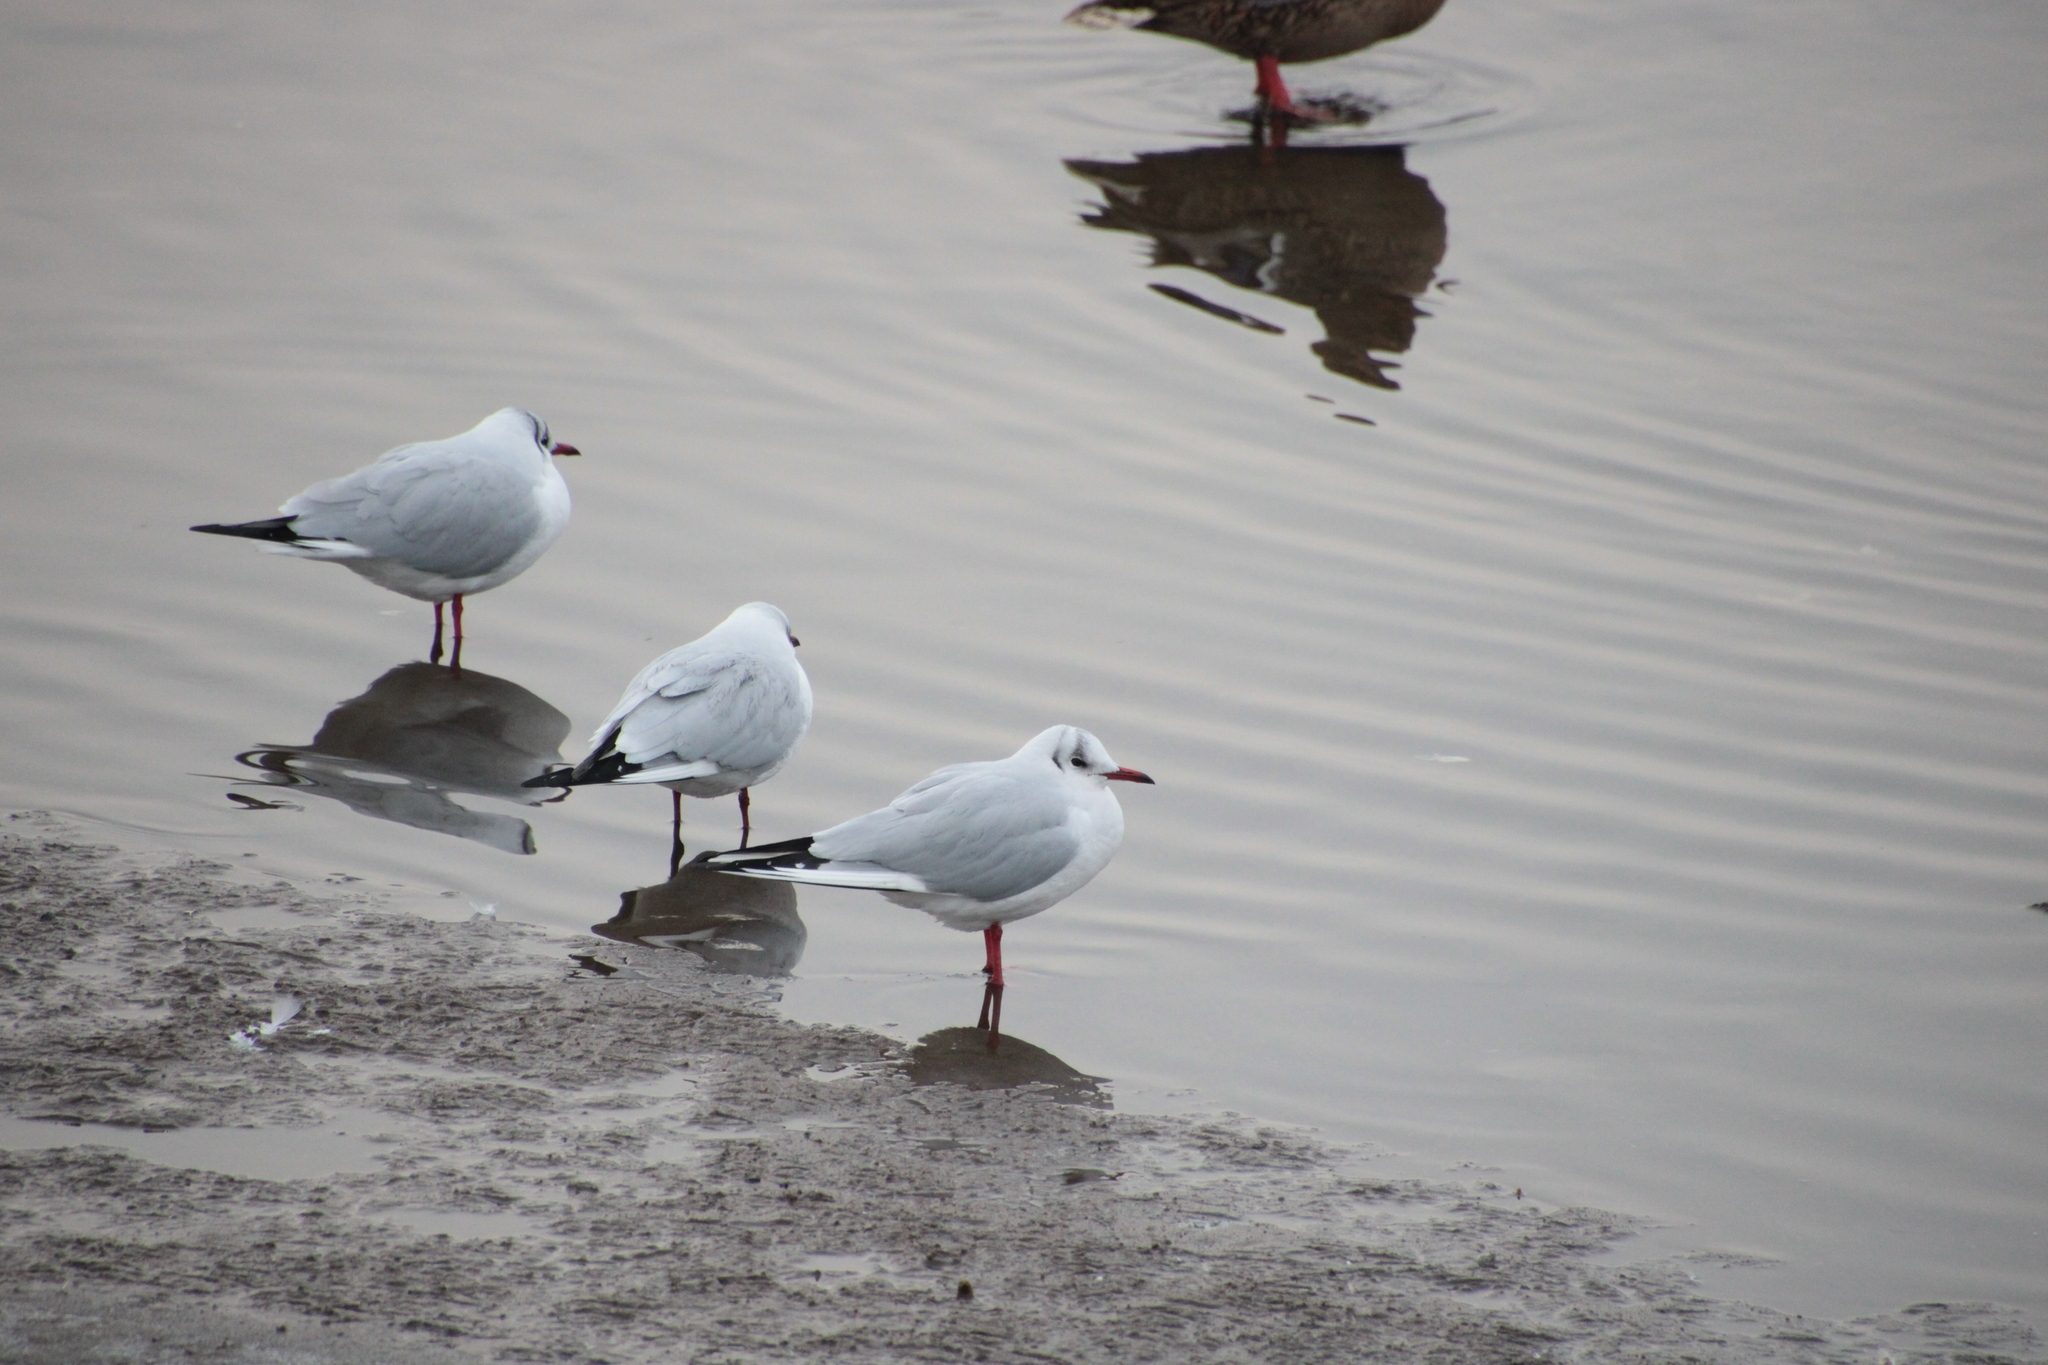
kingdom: Animalia
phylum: Chordata
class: Aves
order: Charadriiformes
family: Laridae
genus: Chroicocephalus
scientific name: Chroicocephalus ridibundus
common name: Black-headed gull
